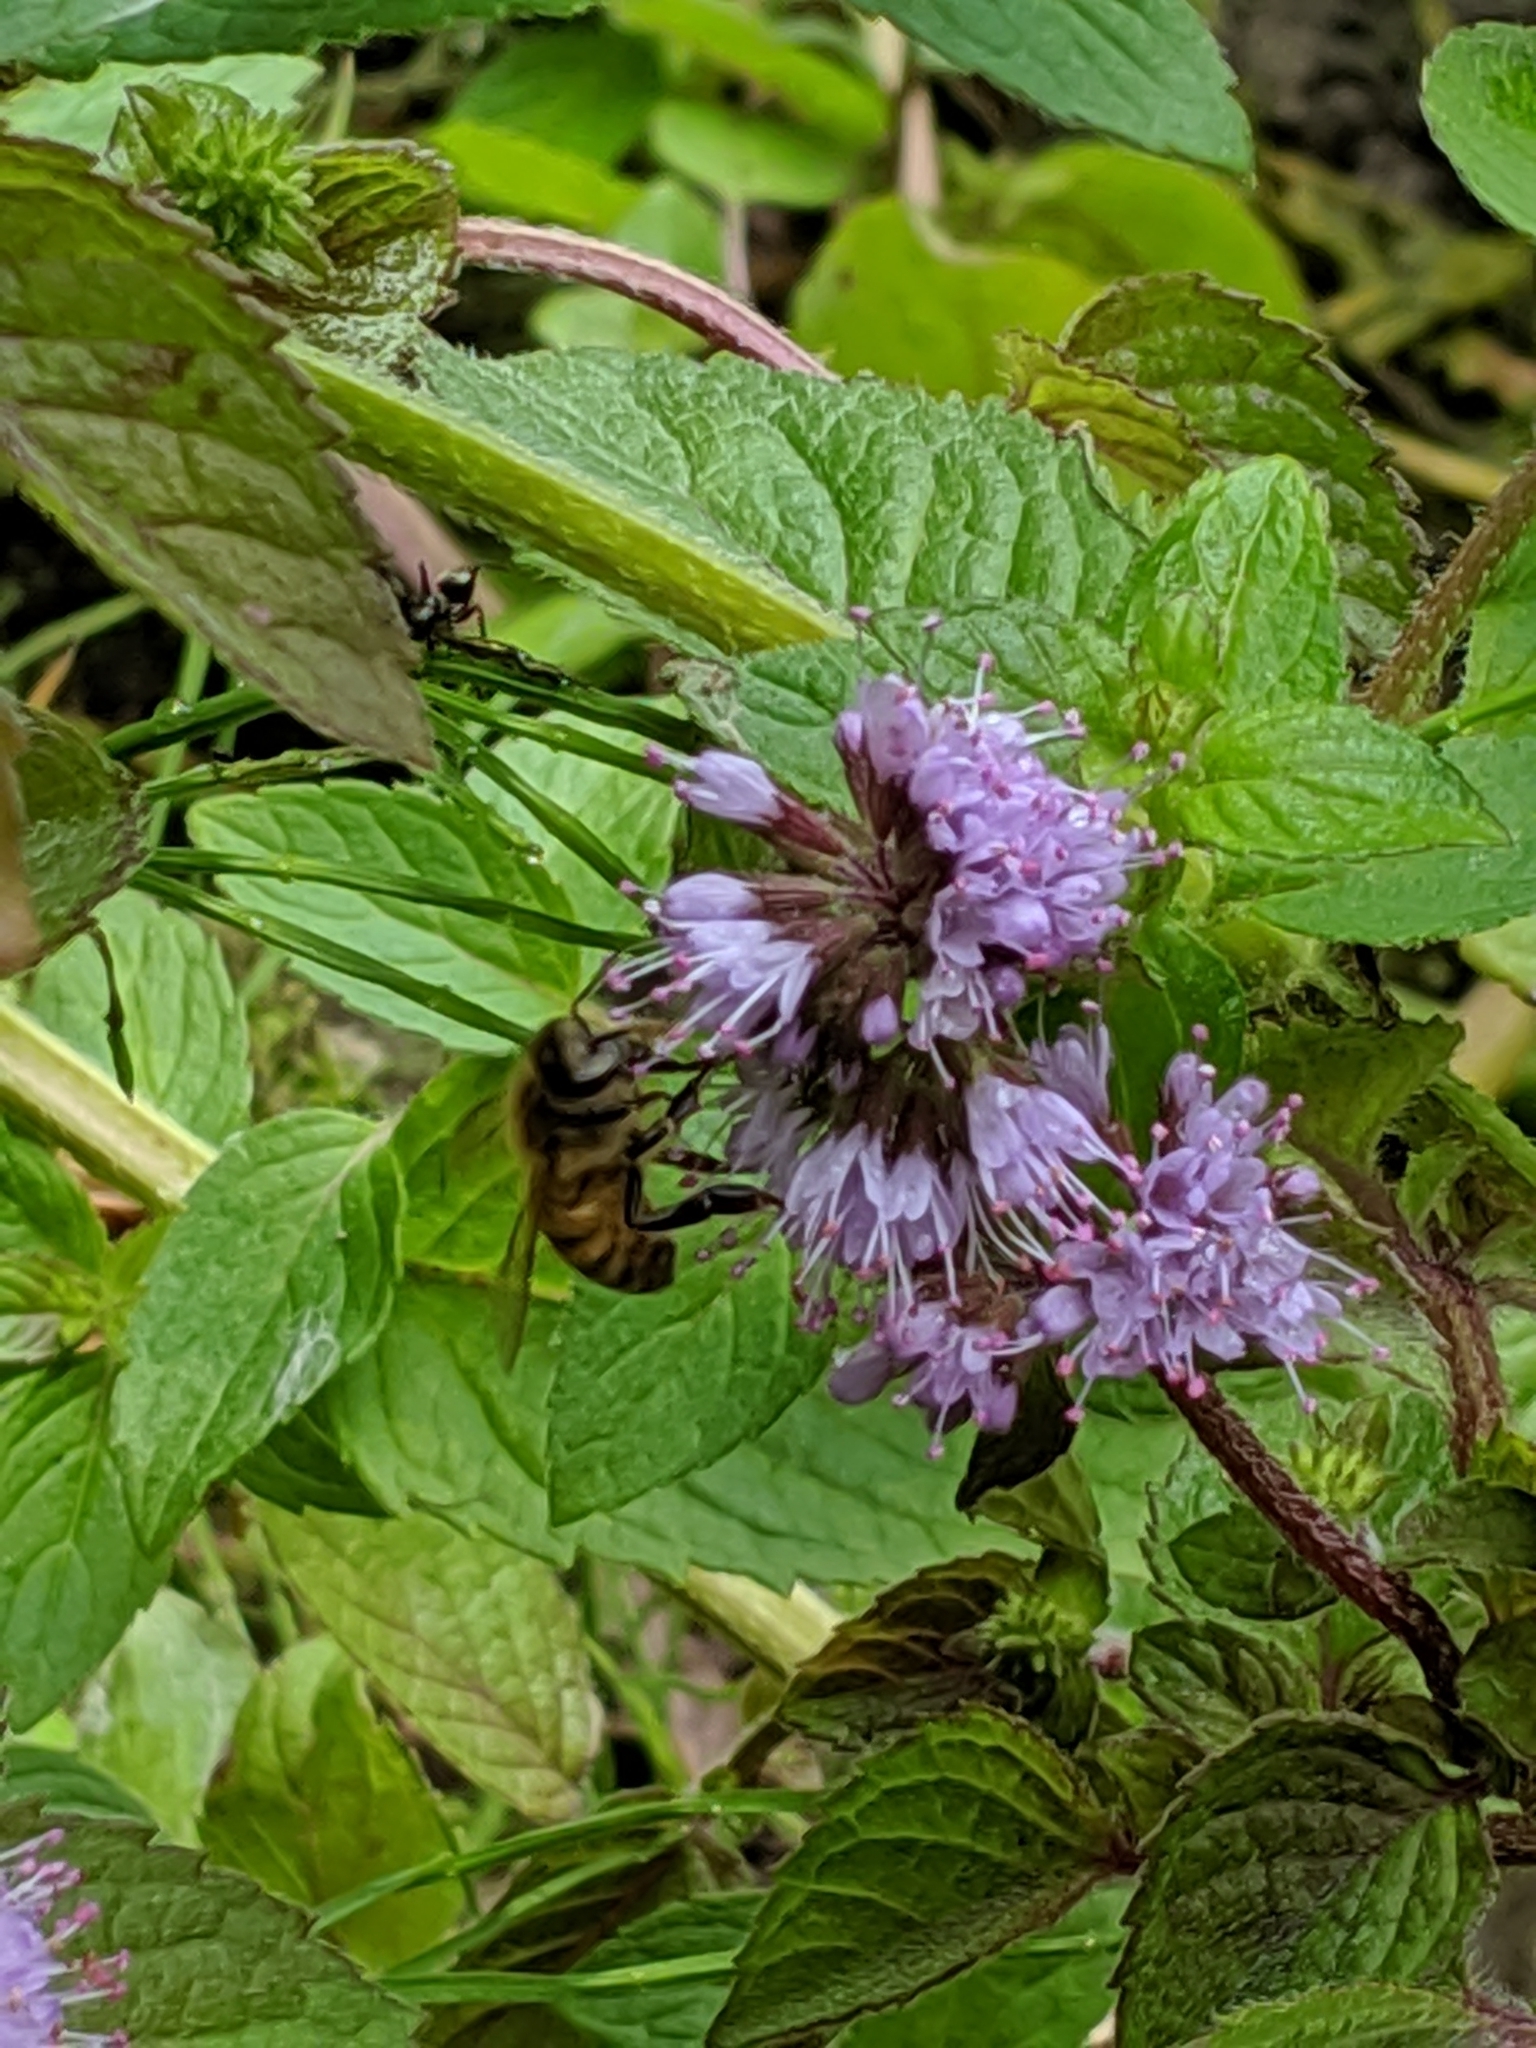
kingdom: Animalia
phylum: Arthropoda
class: Insecta
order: Hymenoptera
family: Apidae
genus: Apis
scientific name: Apis mellifera
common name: Honey bee
